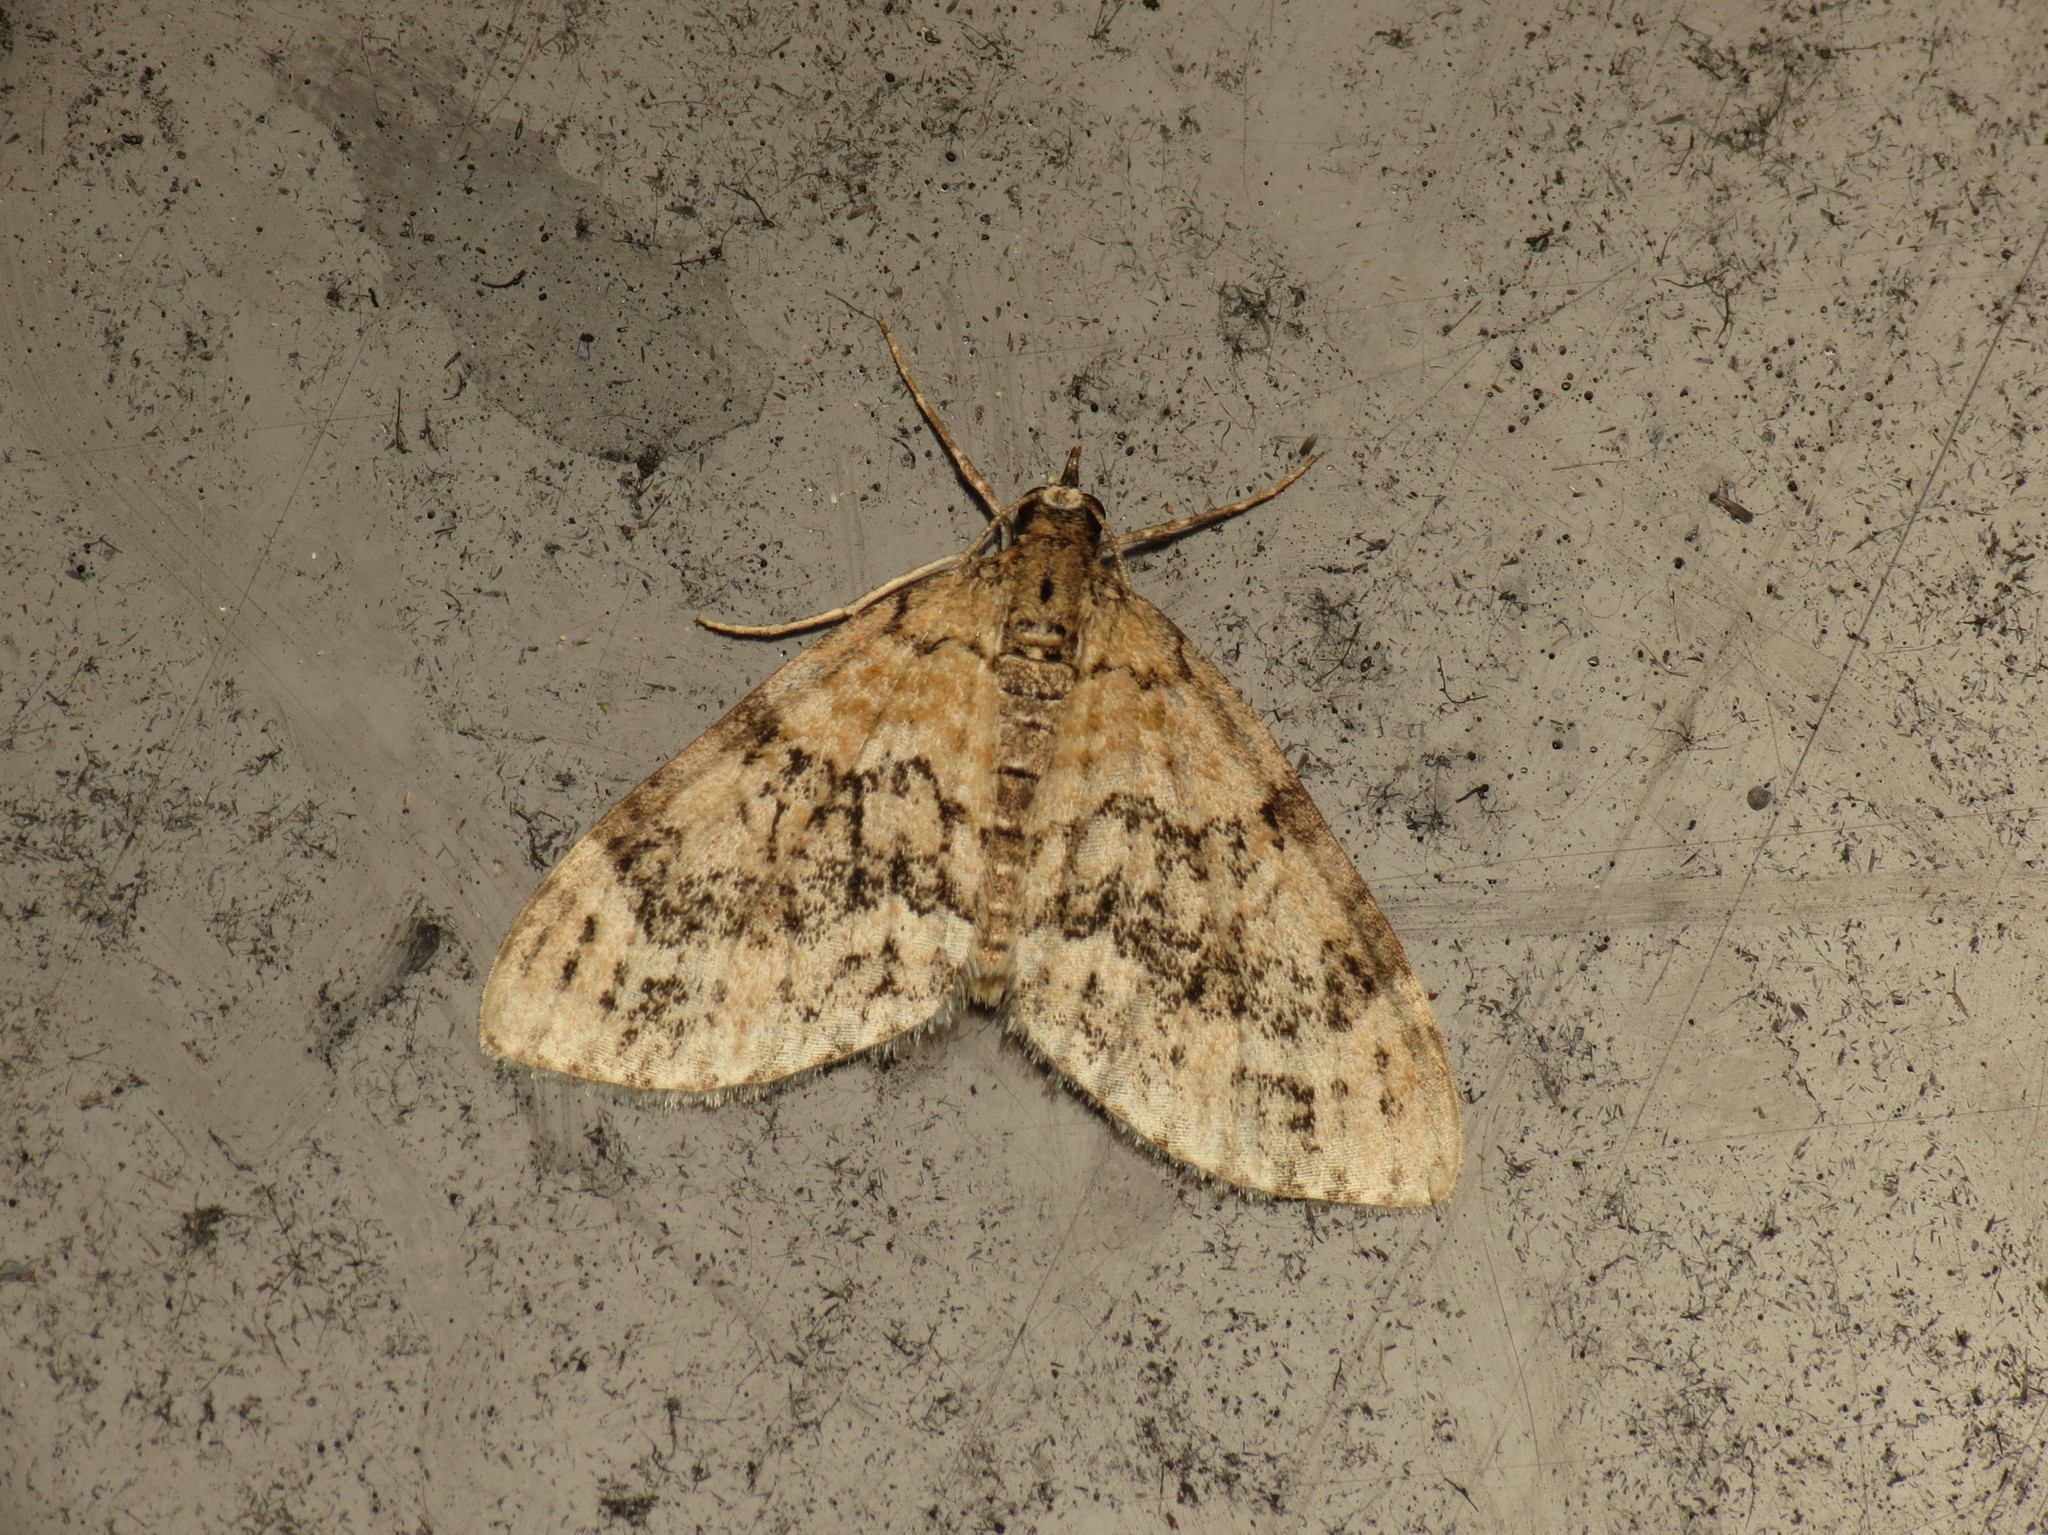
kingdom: Animalia
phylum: Arthropoda
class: Insecta
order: Lepidoptera
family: Geometridae
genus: Acasis
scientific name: Acasis viretata
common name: Yellow-barred brindle
